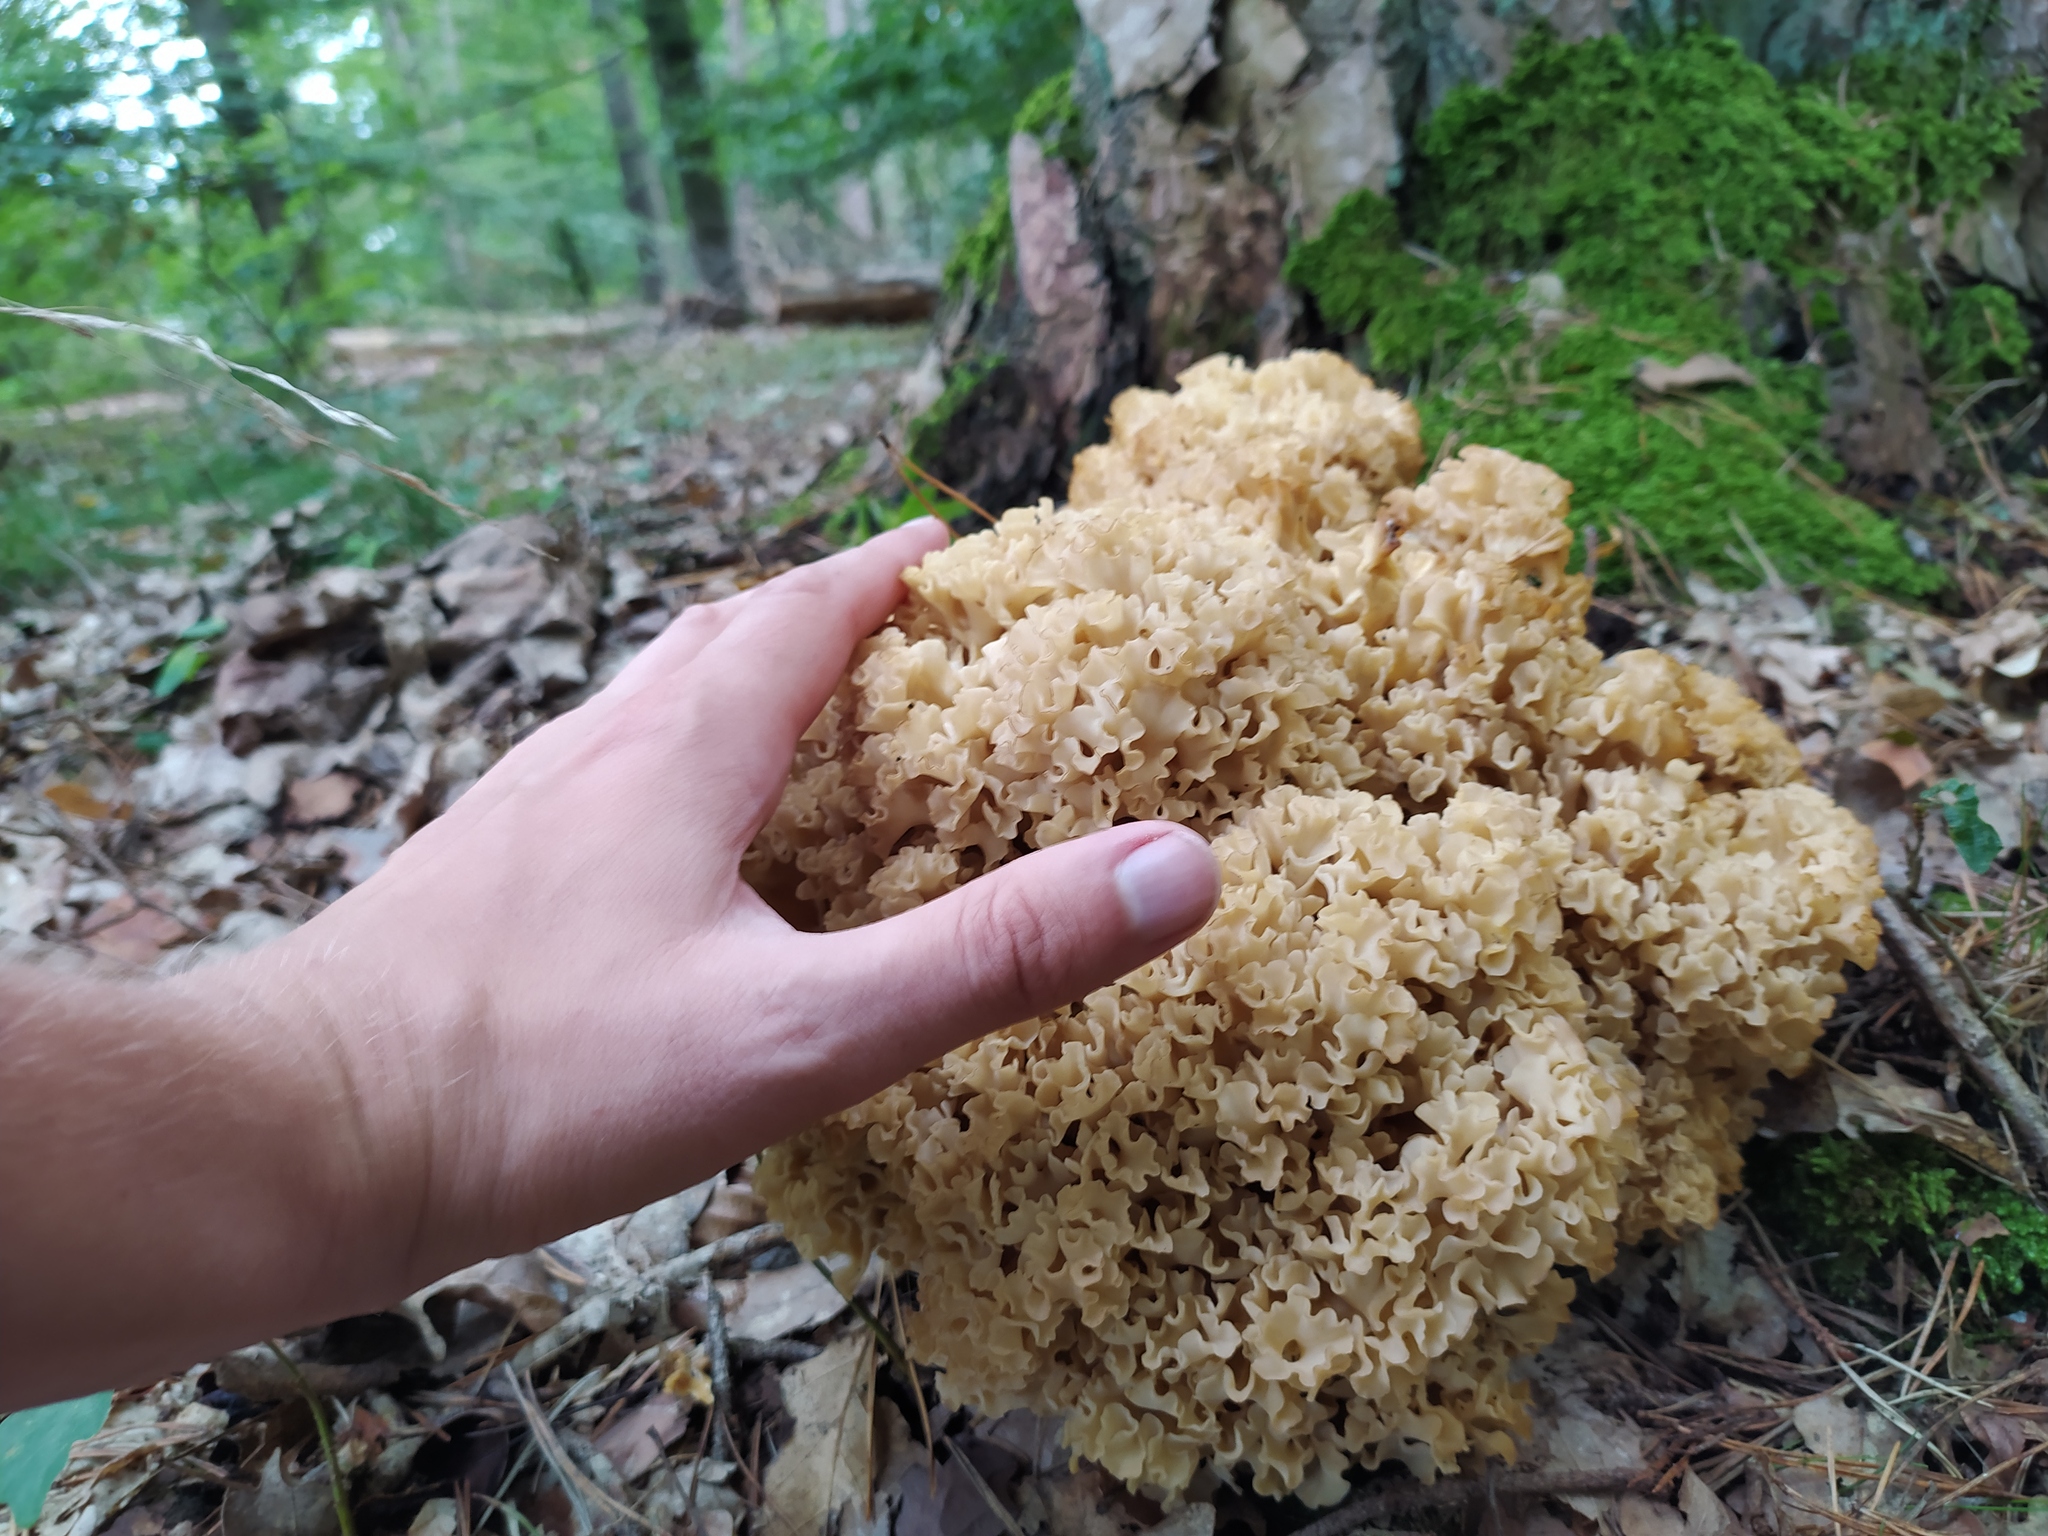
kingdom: Fungi
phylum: Basidiomycota
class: Agaricomycetes
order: Polyporales
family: Sparassidaceae
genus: Sparassis
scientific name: Sparassis crispa
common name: Brain fungus
